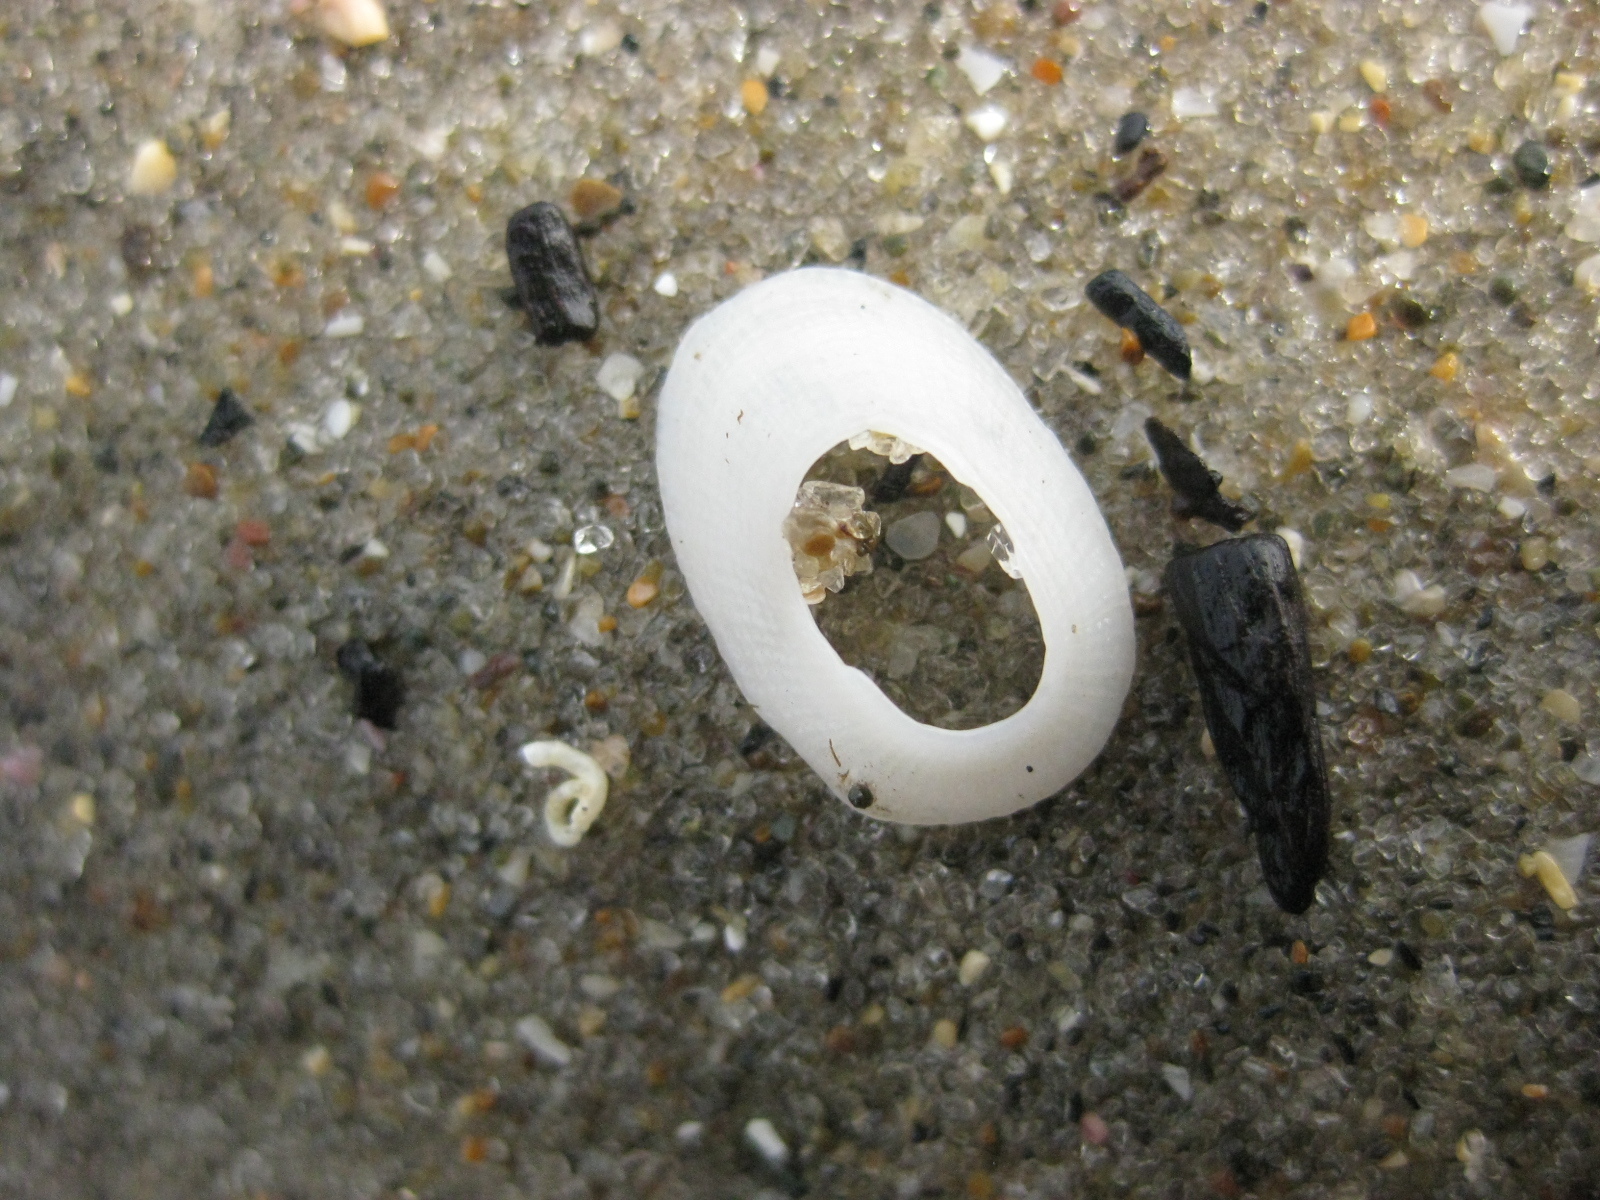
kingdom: Animalia
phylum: Mollusca
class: Gastropoda
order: Lepetellida
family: Fissurellidae
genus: Tugali
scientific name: Tugali elegans
